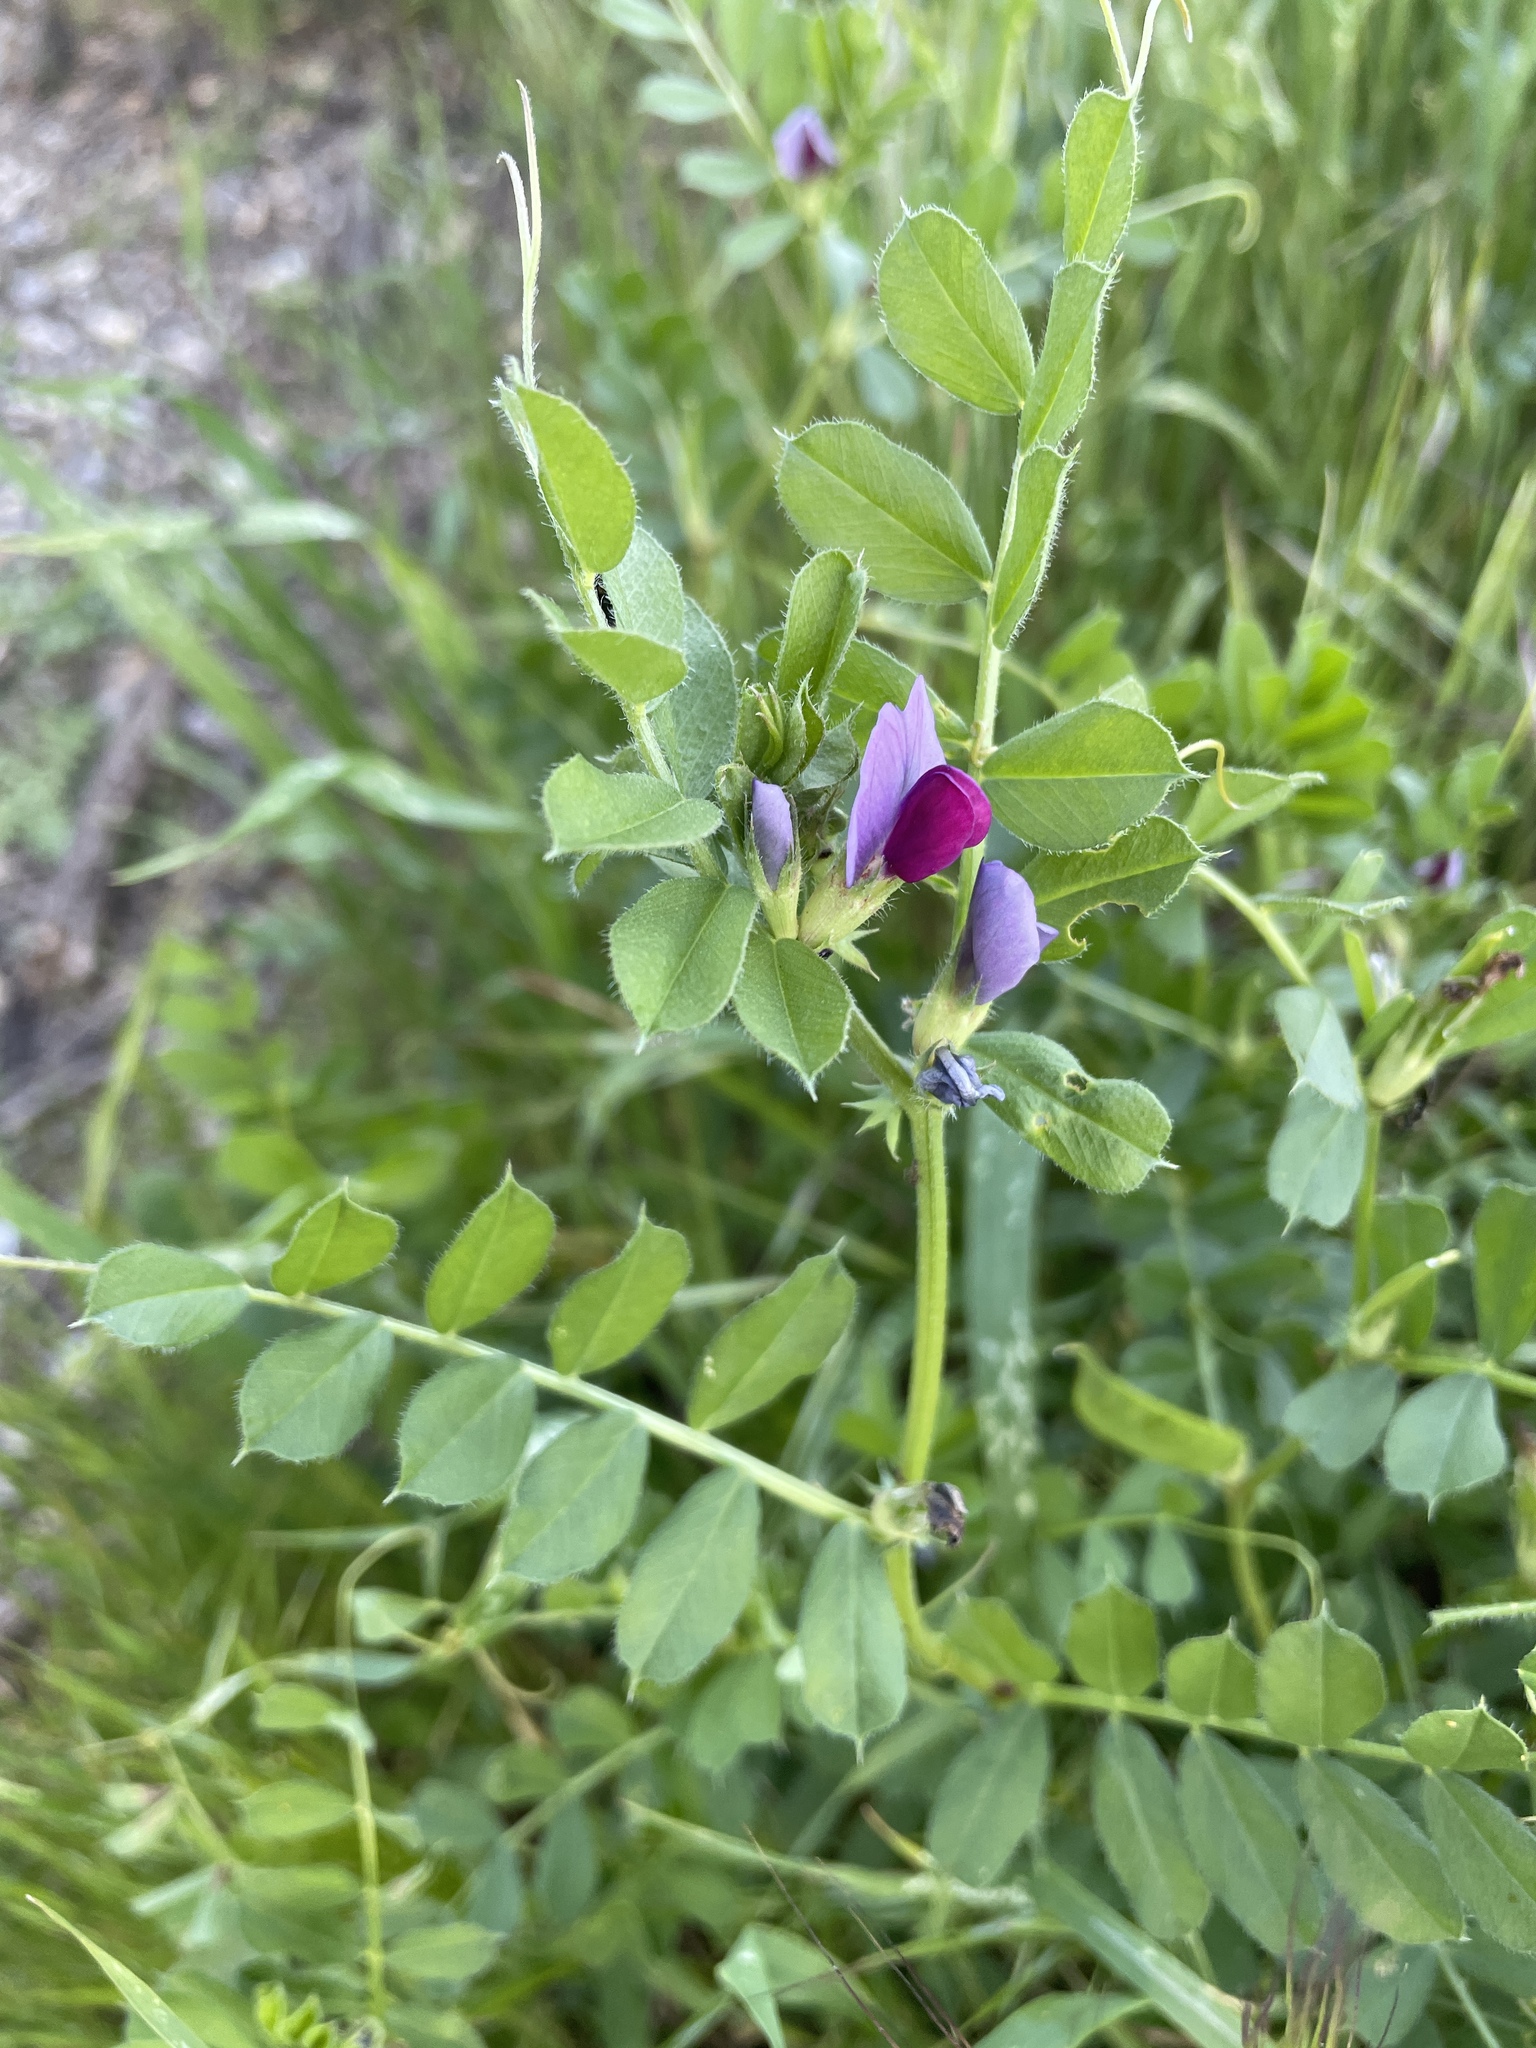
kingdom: Plantae
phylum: Tracheophyta
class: Magnoliopsida
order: Fabales
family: Fabaceae
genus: Vicia
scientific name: Vicia sativa
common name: Garden vetch
